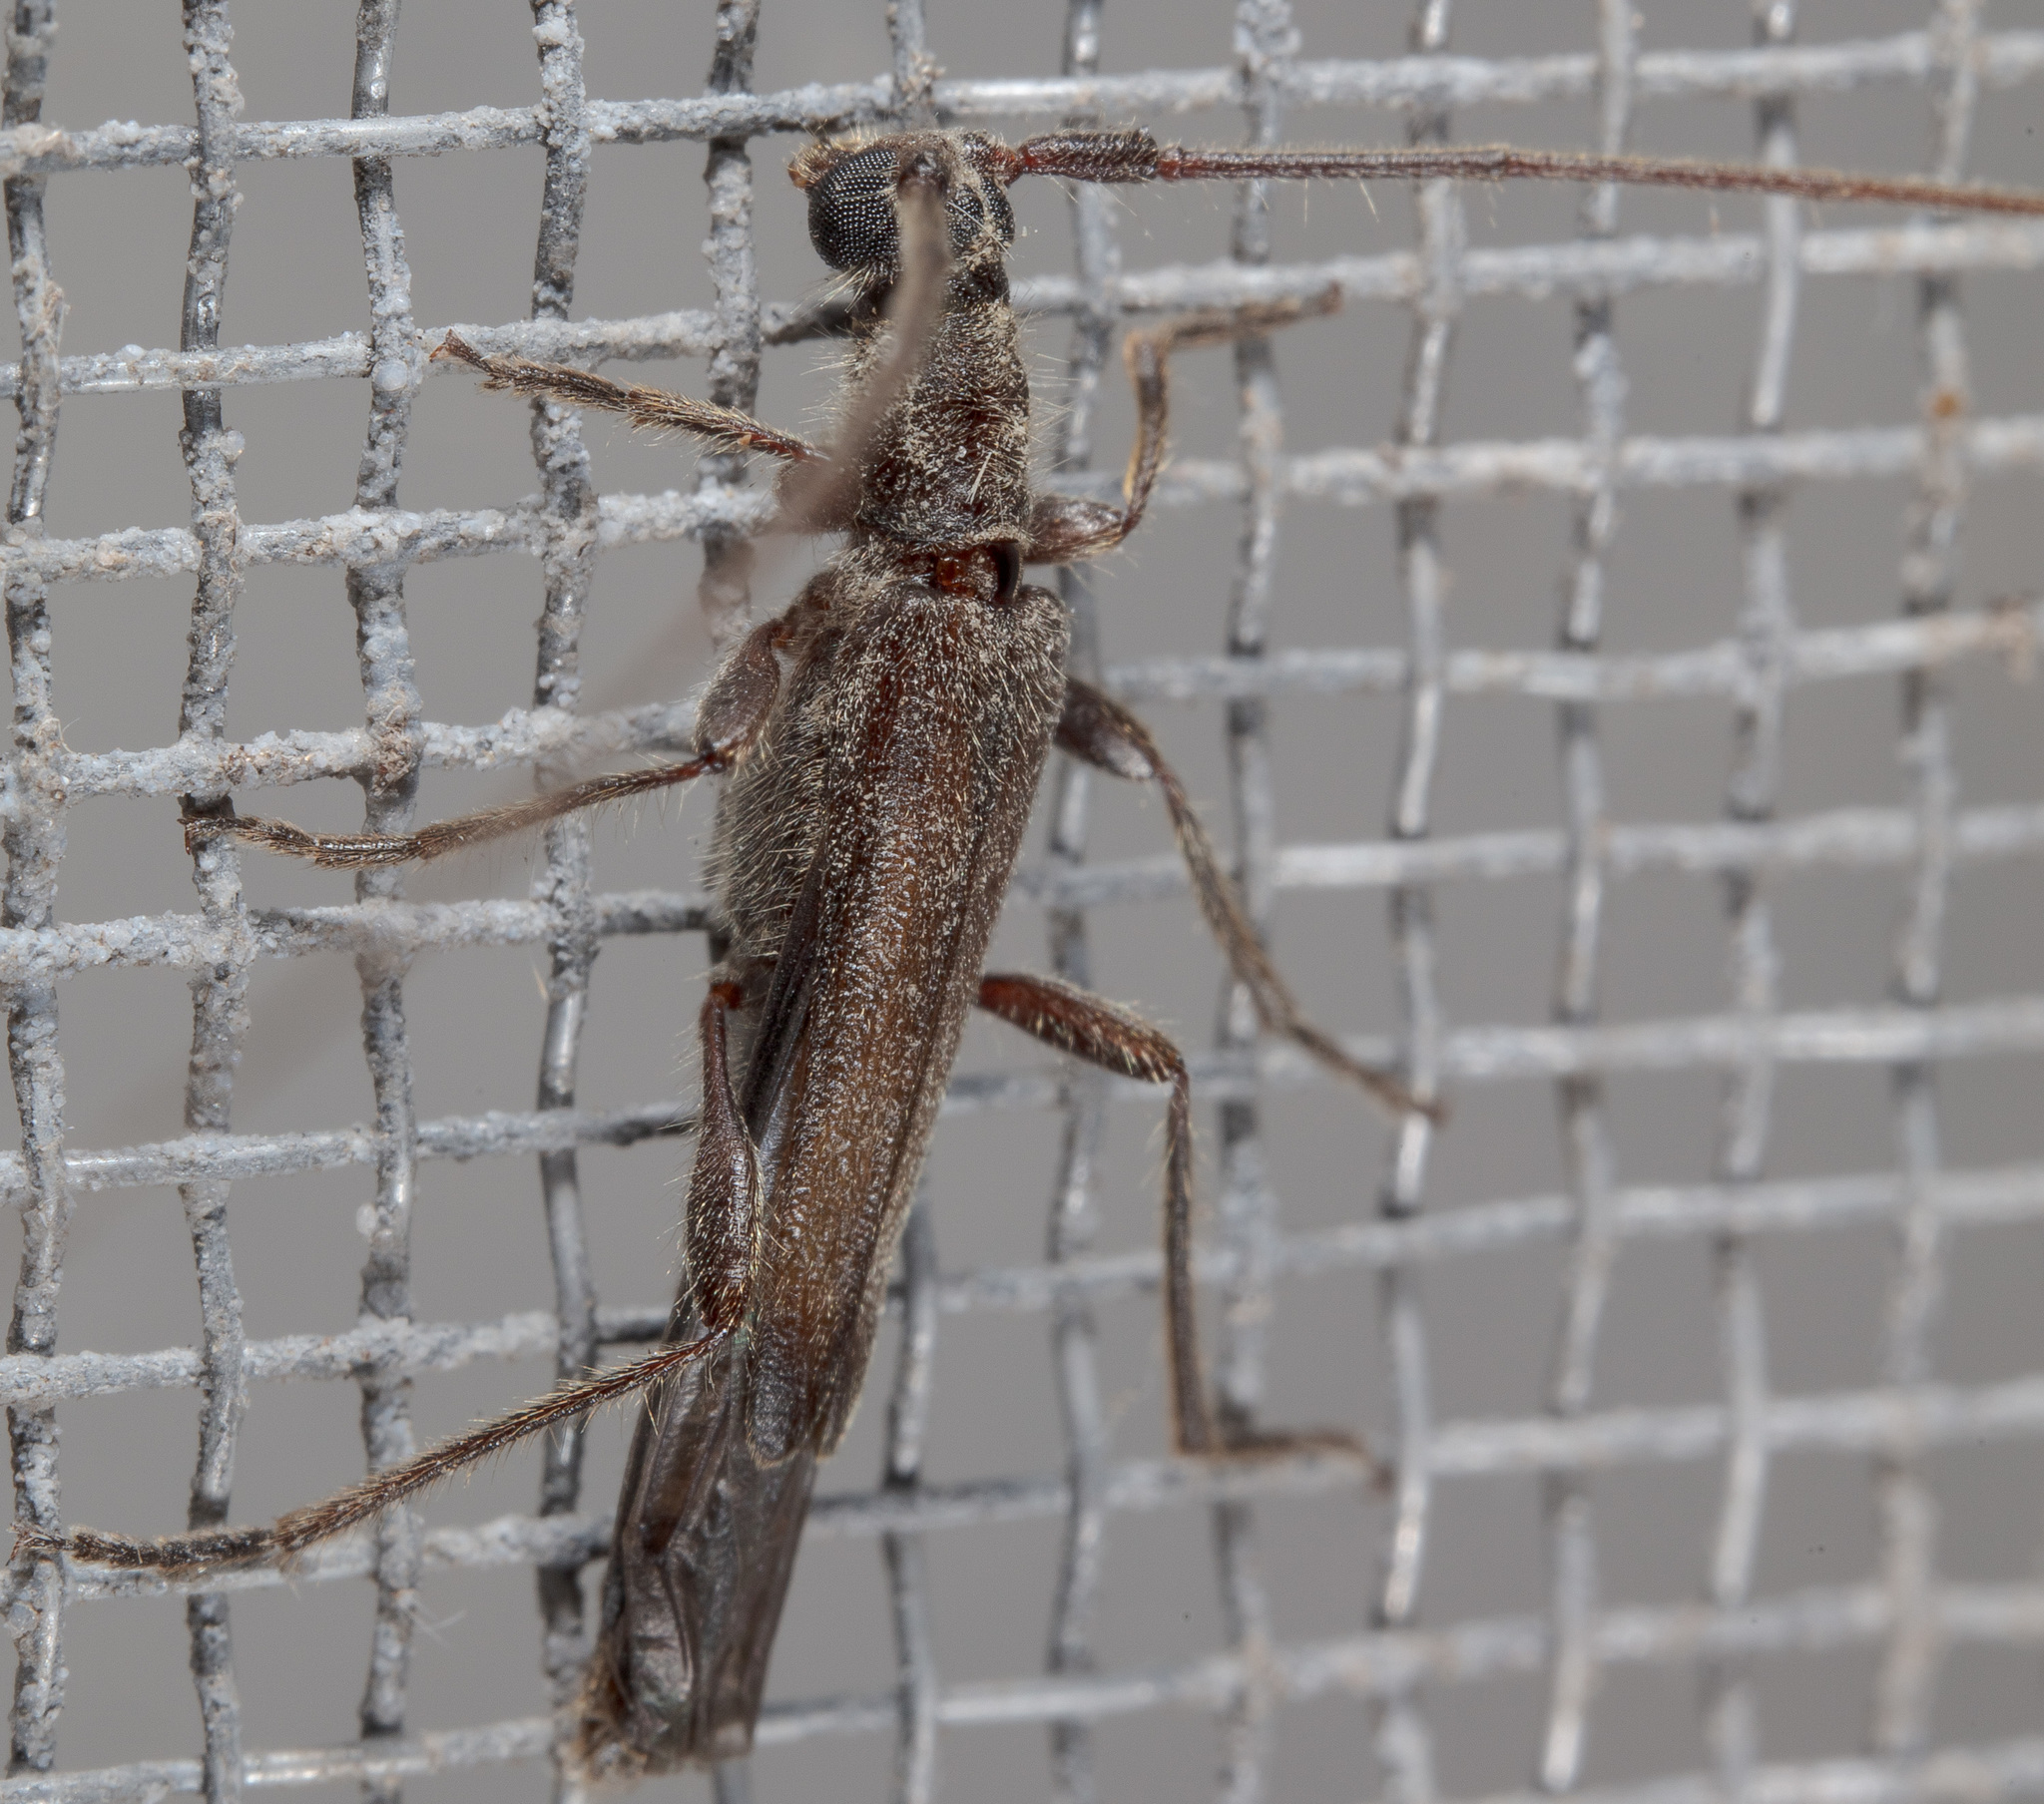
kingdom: Animalia
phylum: Arthropoda
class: Insecta
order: Coleoptera
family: Cerambycidae
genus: Styloxus
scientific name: Styloxus fulleri
